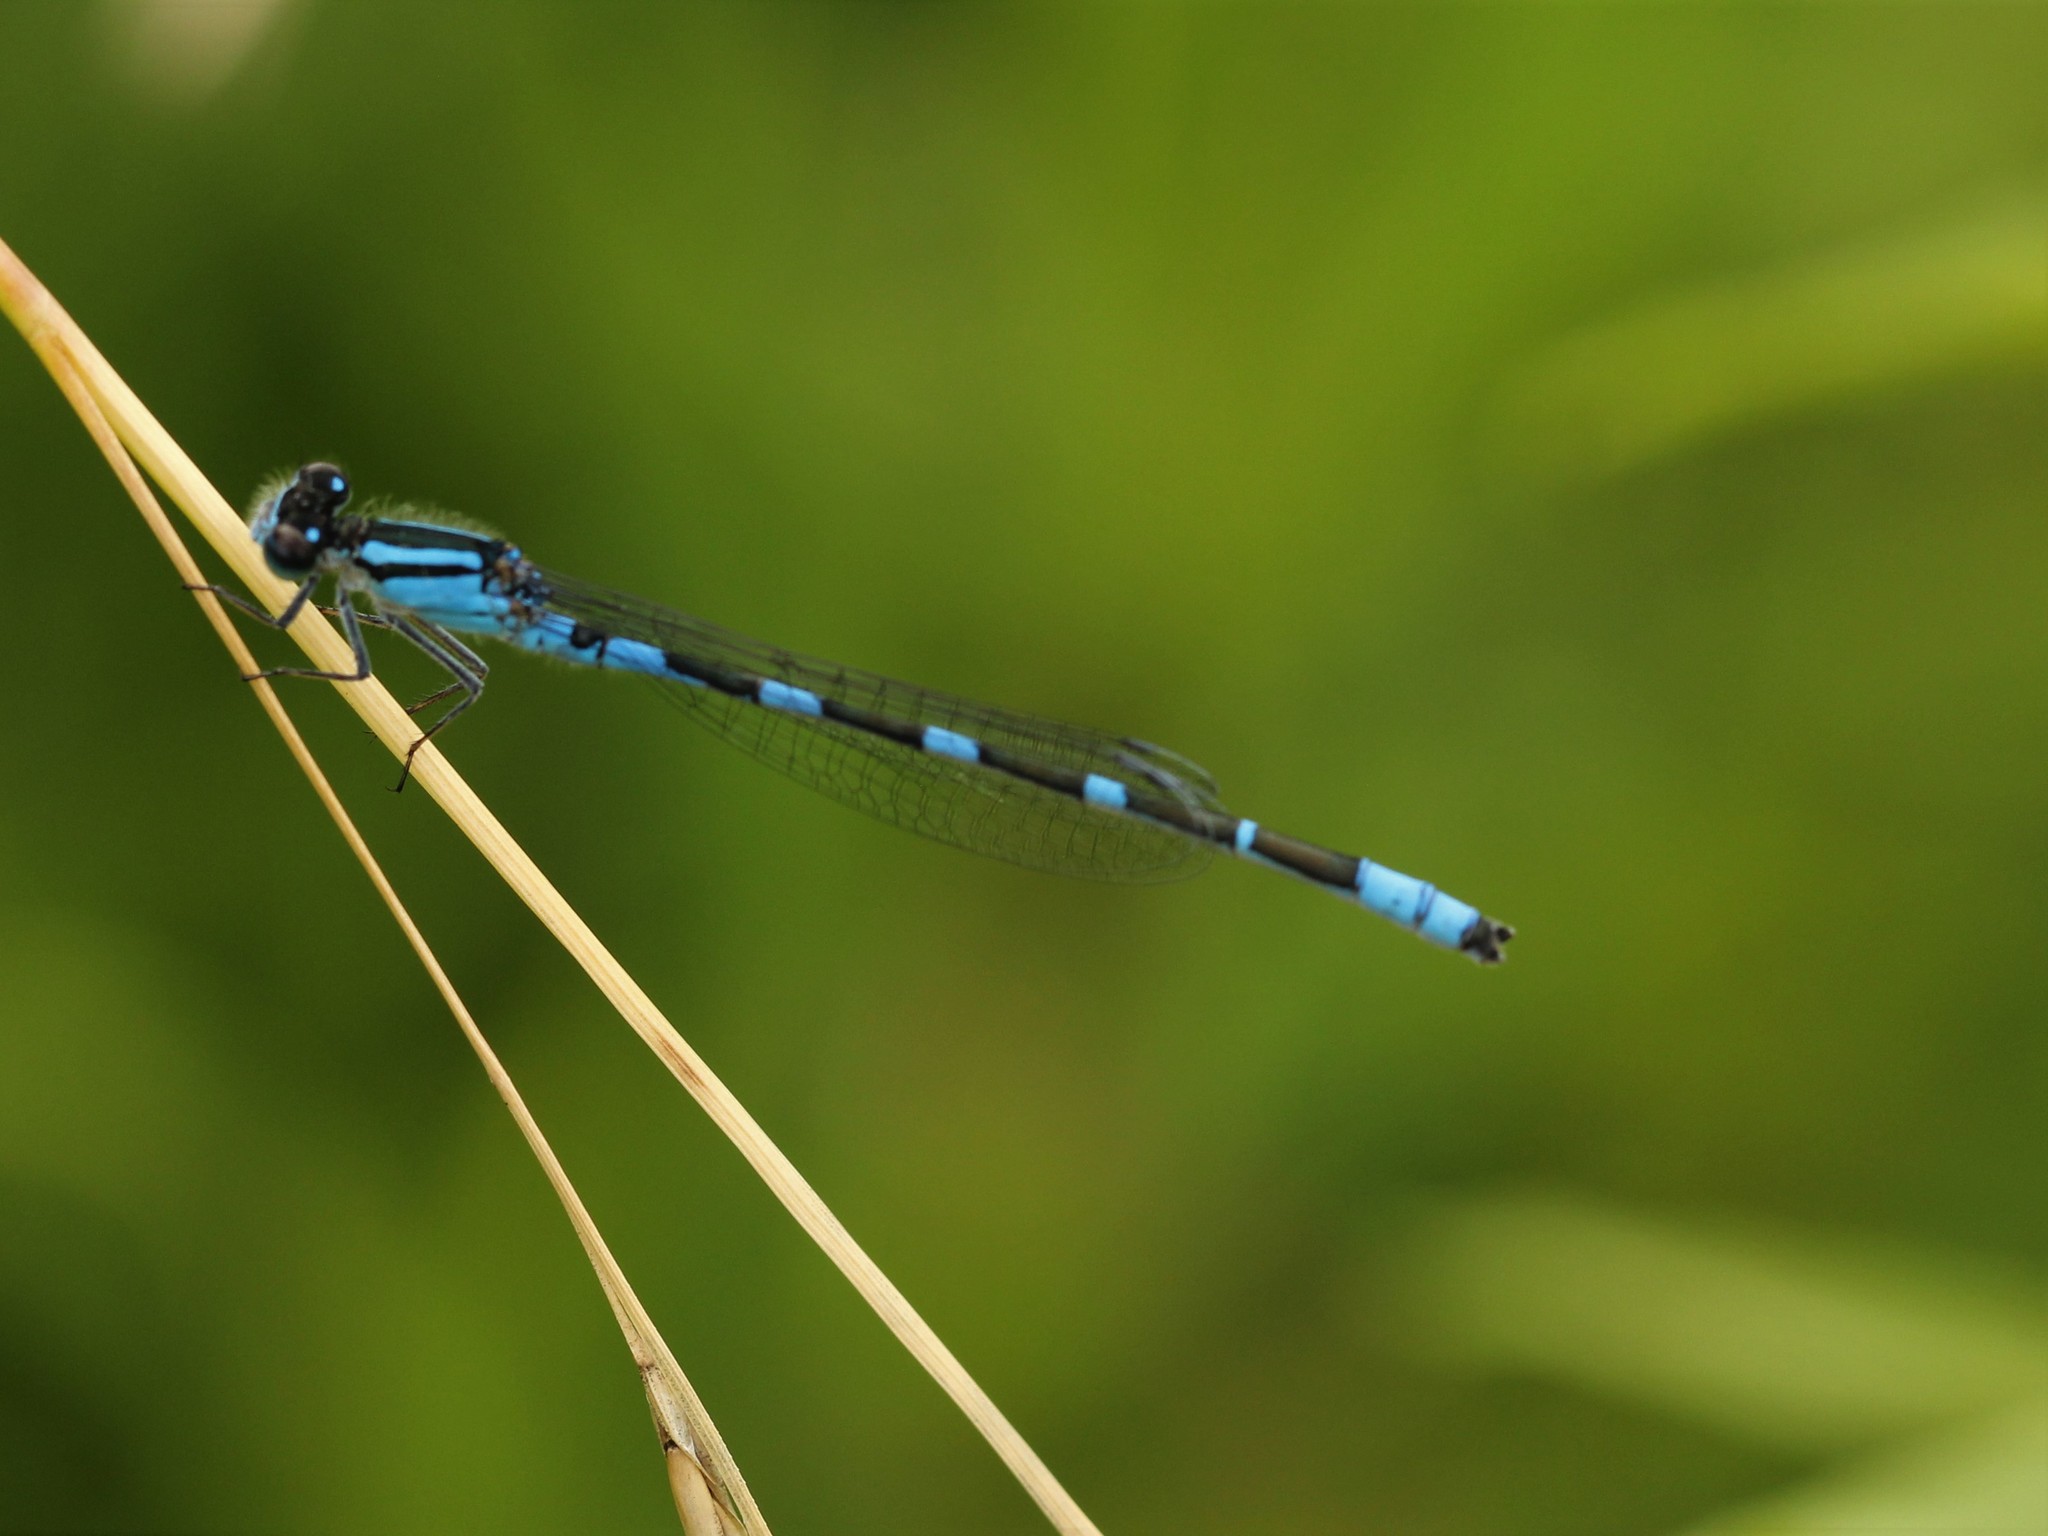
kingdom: Animalia
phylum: Arthropoda
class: Insecta
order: Odonata
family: Coenagrionidae
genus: Enallagma
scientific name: Enallagma carunculatum
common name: Tule bluet
